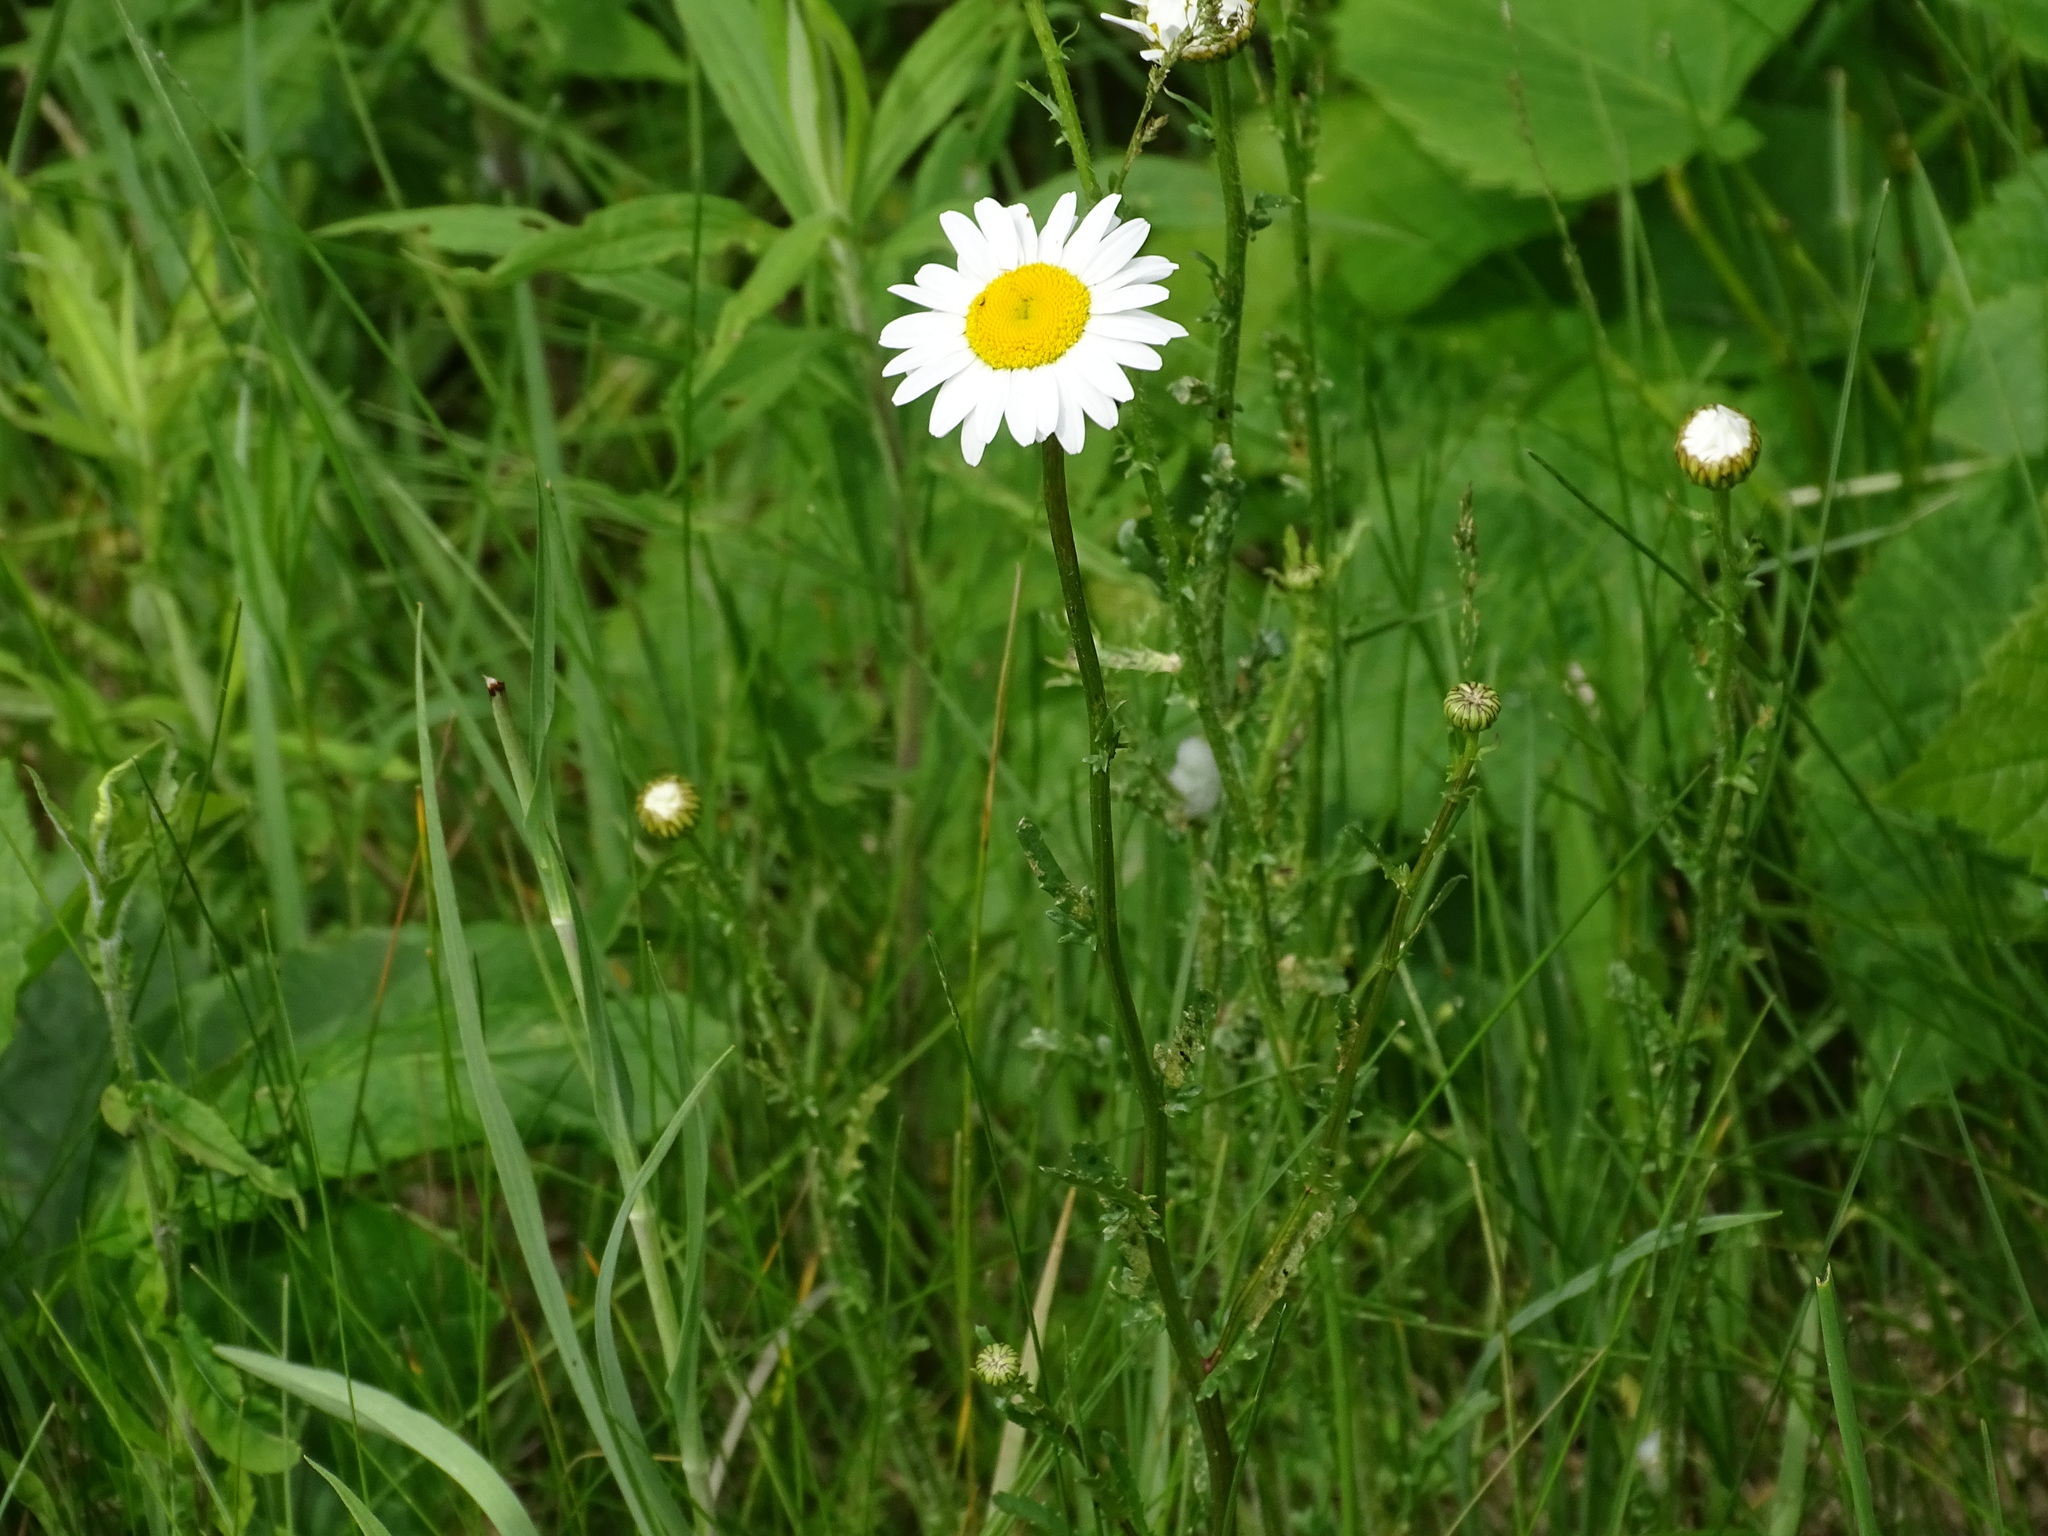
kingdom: Plantae
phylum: Tracheophyta
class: Magnoliopsida
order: Asterales
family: Asteraceae
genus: Leucanthemum
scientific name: Leucanthemum vulgare
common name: Oxeye daisy
